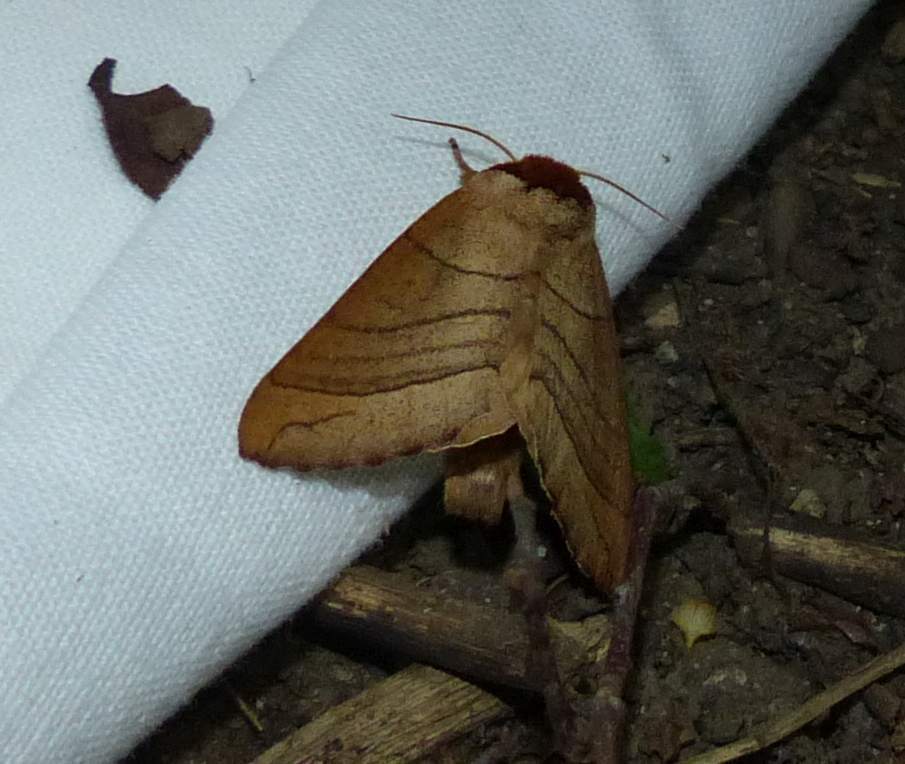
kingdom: Animalia
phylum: Arthropoda
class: Insecta
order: Lepidoptera
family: Notodontidae
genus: Datana
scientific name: Datana ministra
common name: Yellow-necked caterpillar moth
